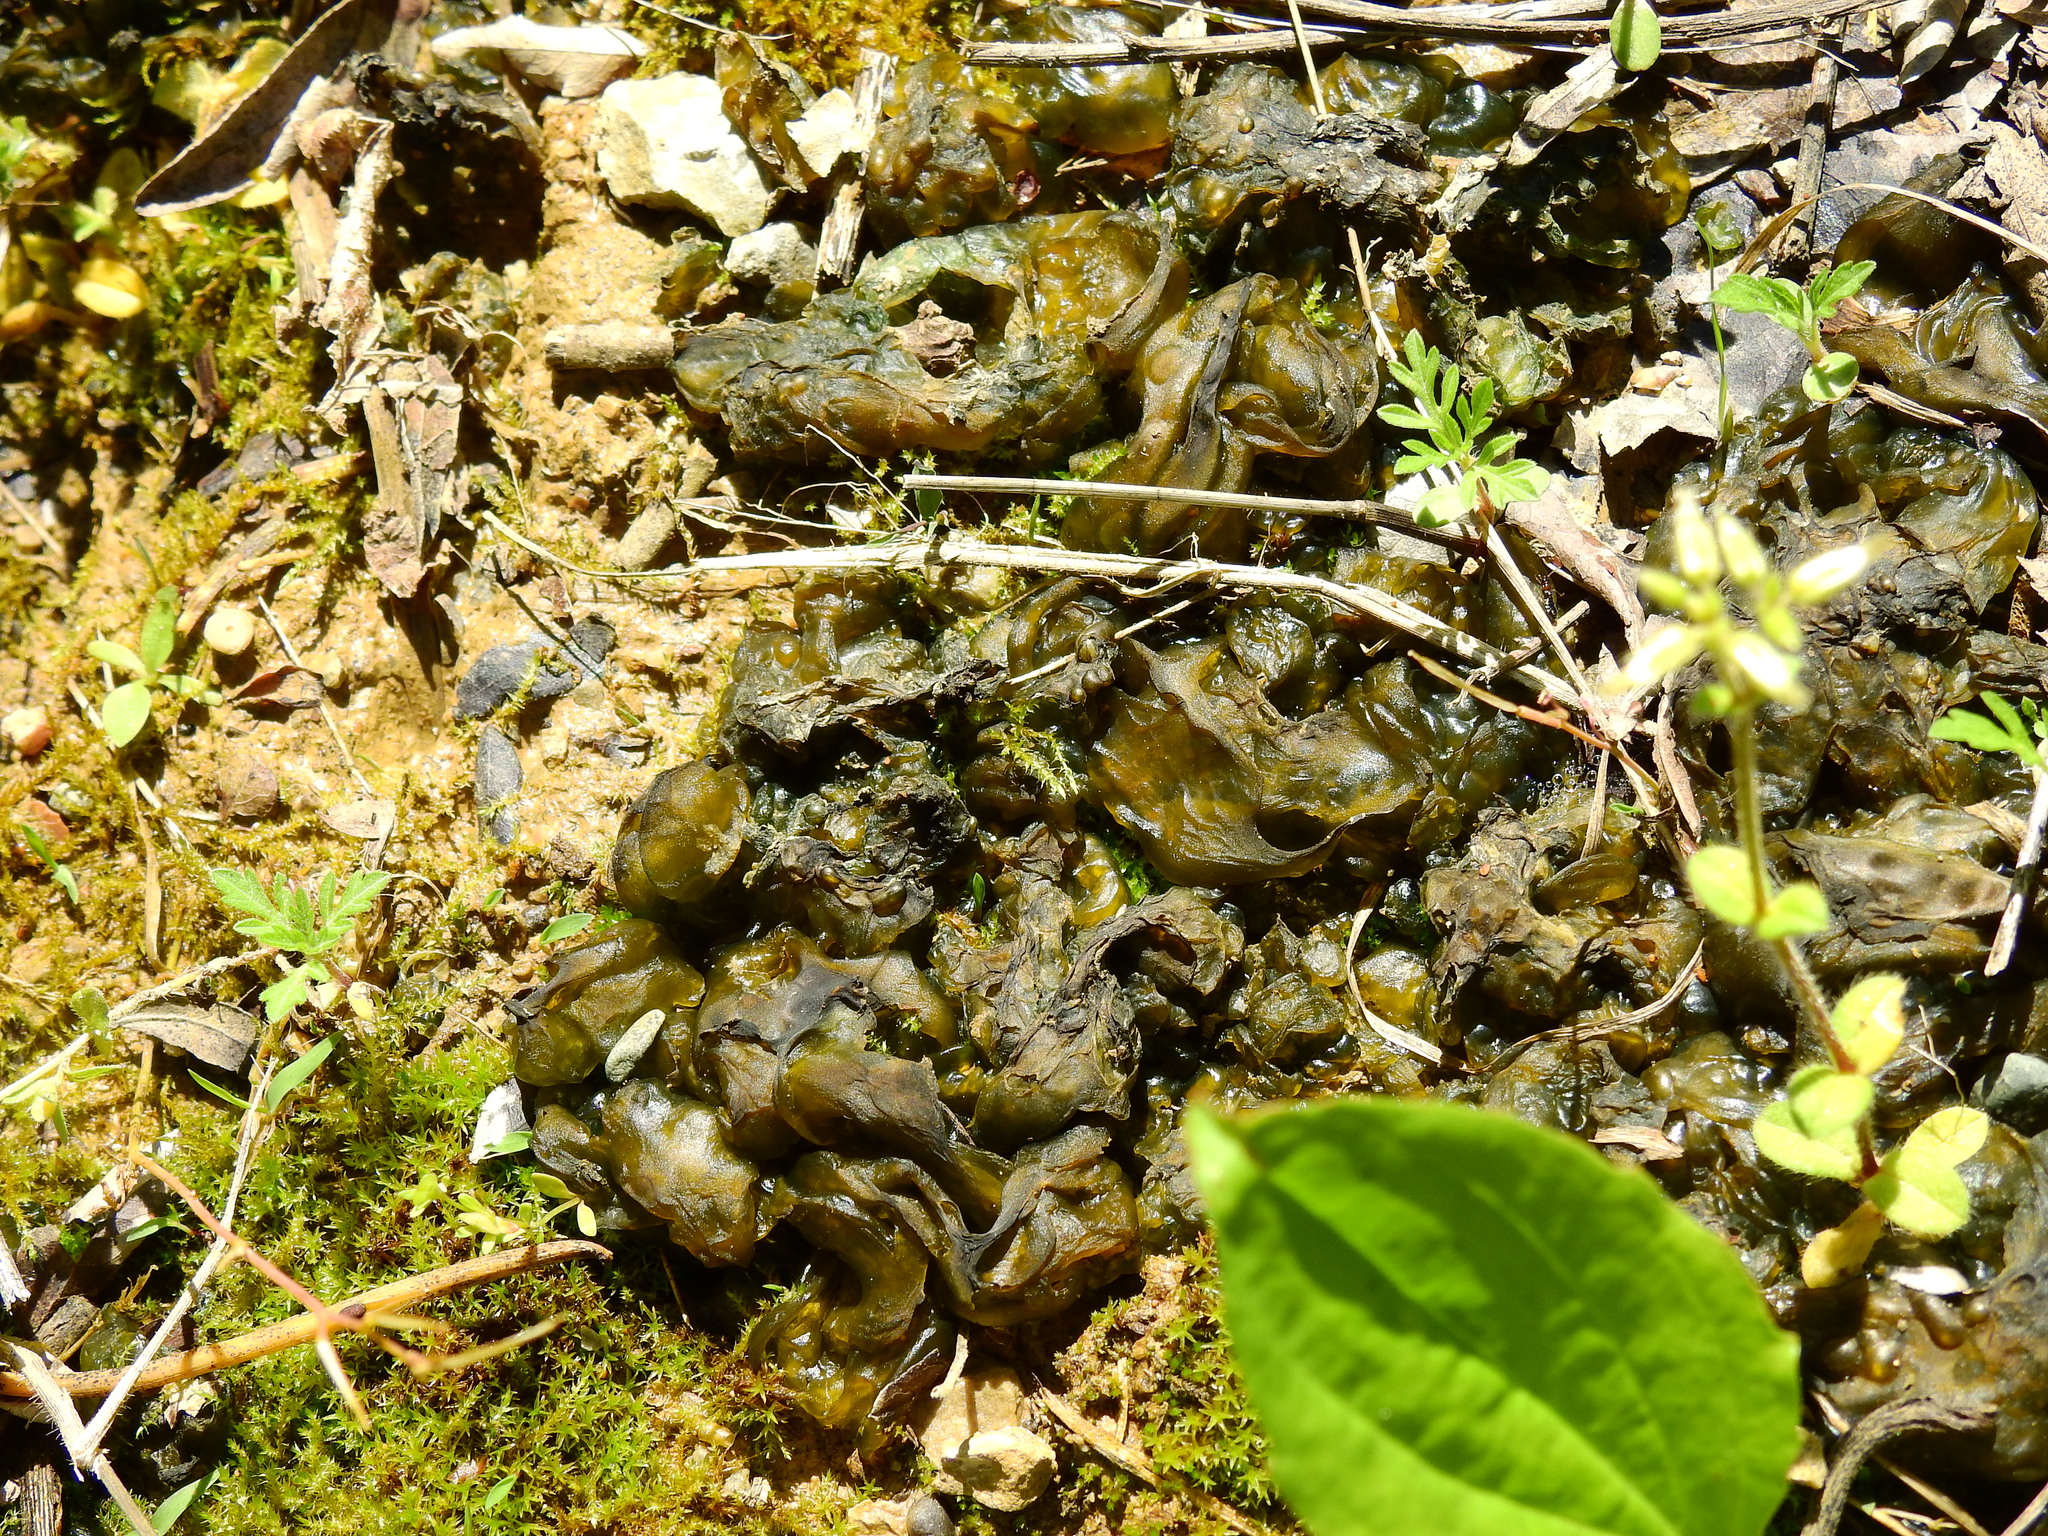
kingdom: Bacteria
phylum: Cyanobacteria
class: Cyanobacteriia
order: Cyanobacteriales
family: Nostocaceae
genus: Nostoc
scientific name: Nostoc commune
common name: Star jelly
